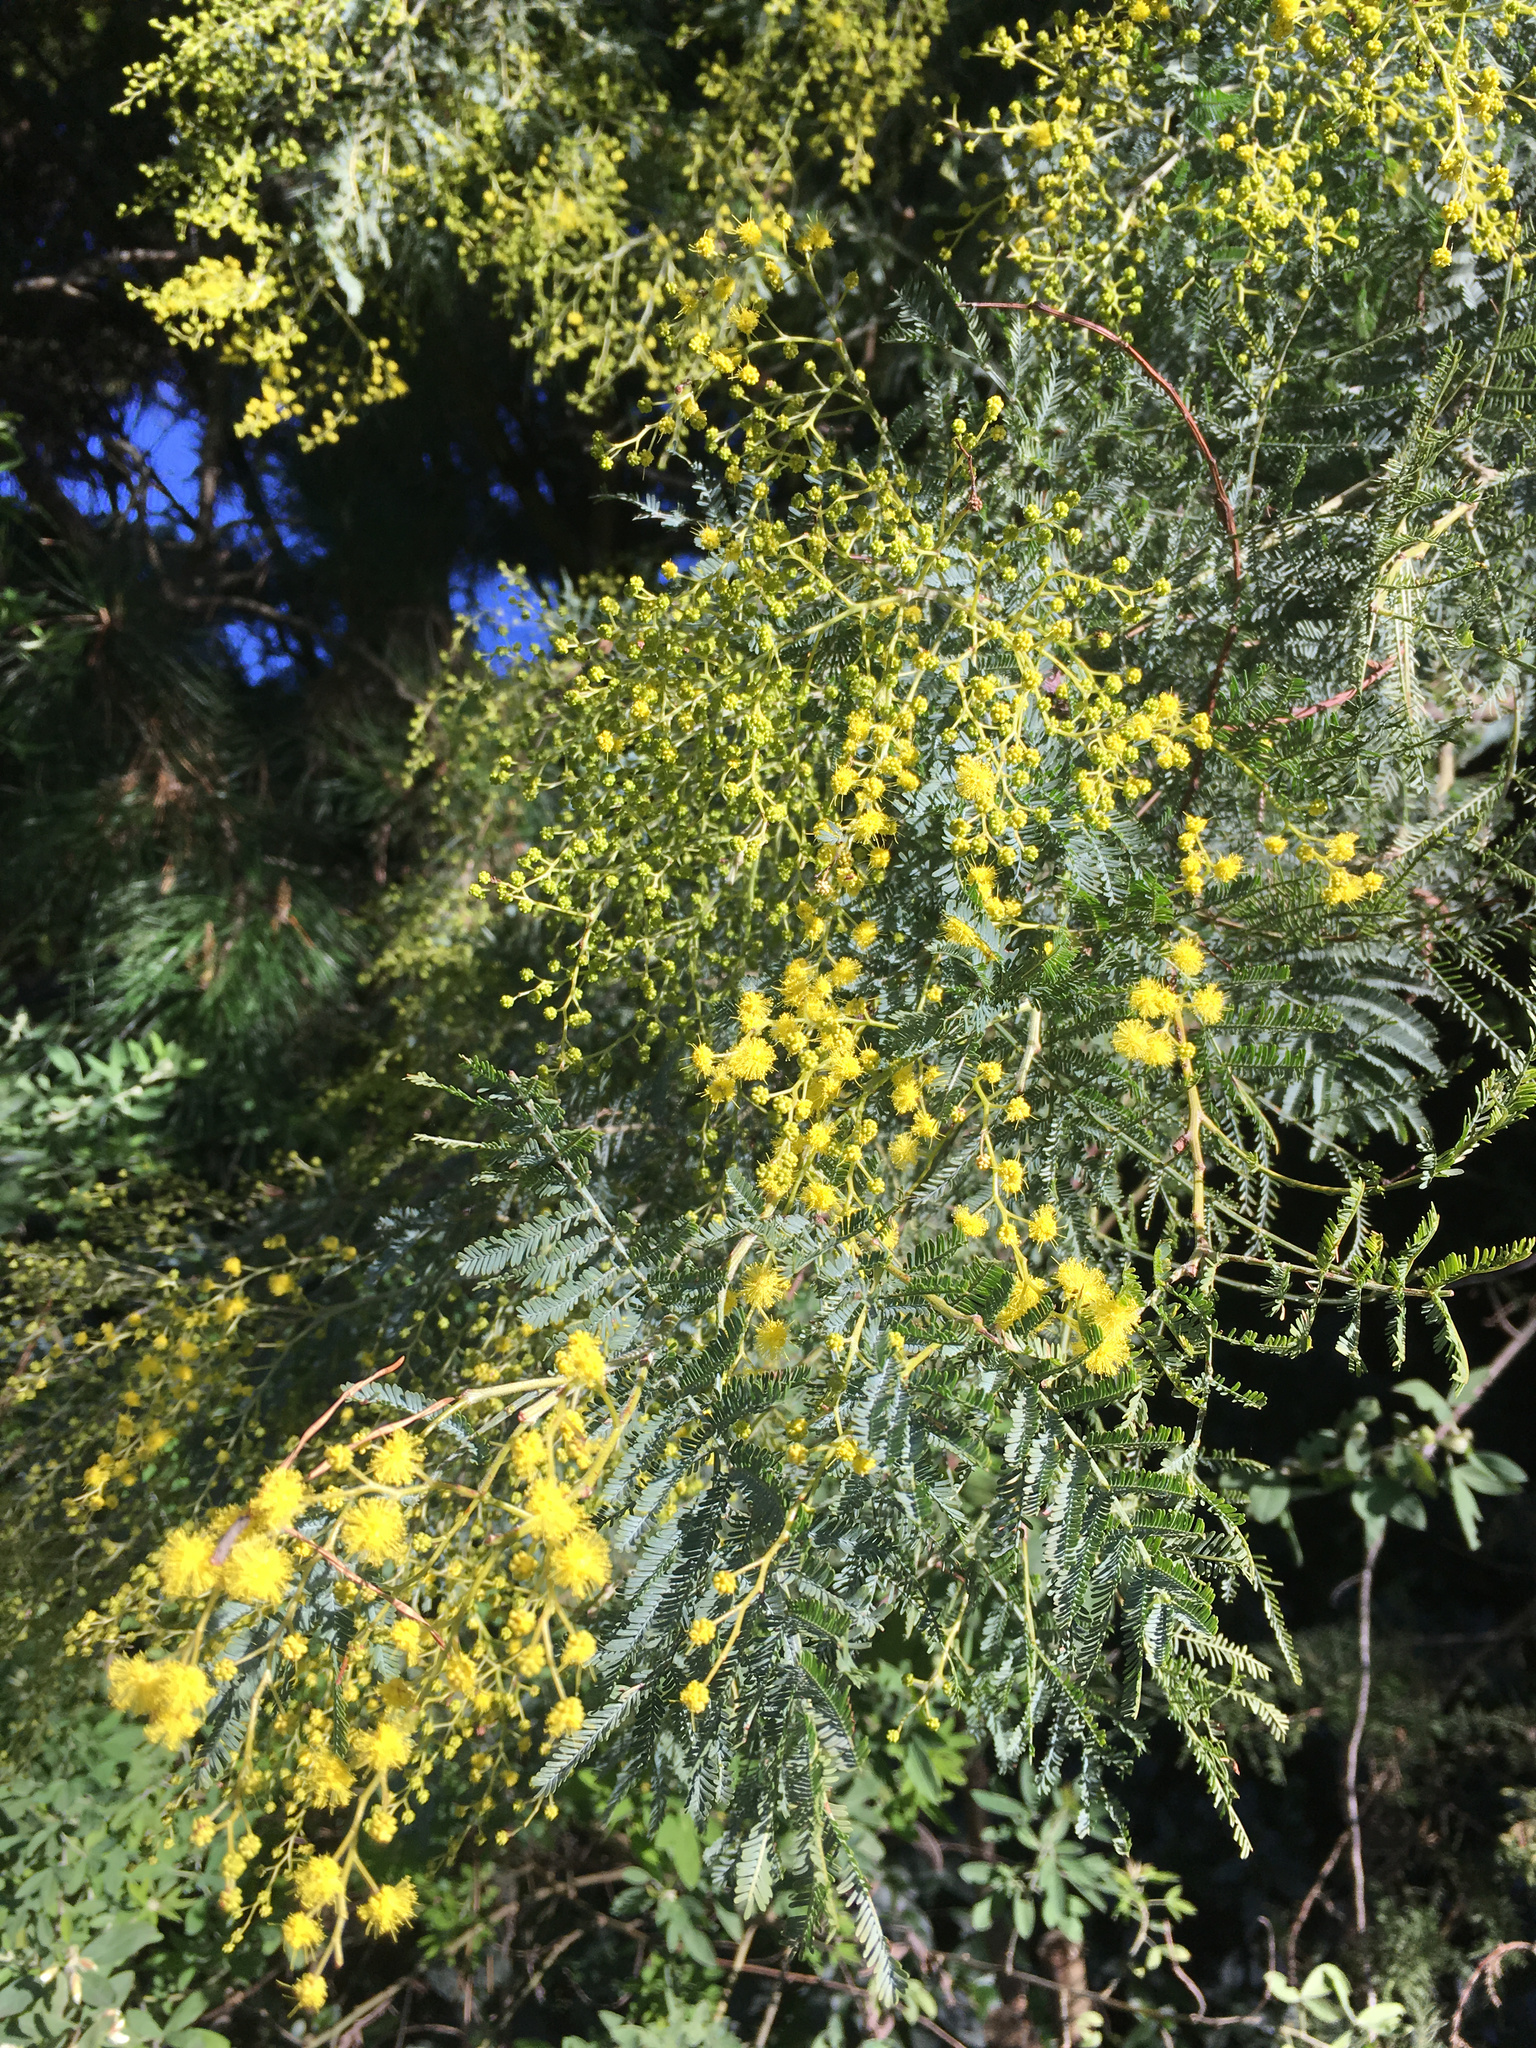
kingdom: Plantae
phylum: Tracheophyta
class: Magnoliopsida
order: Fabales
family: Fabaceae
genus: Acacia
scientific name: Acacia baileyana
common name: Cootamundra wattle
